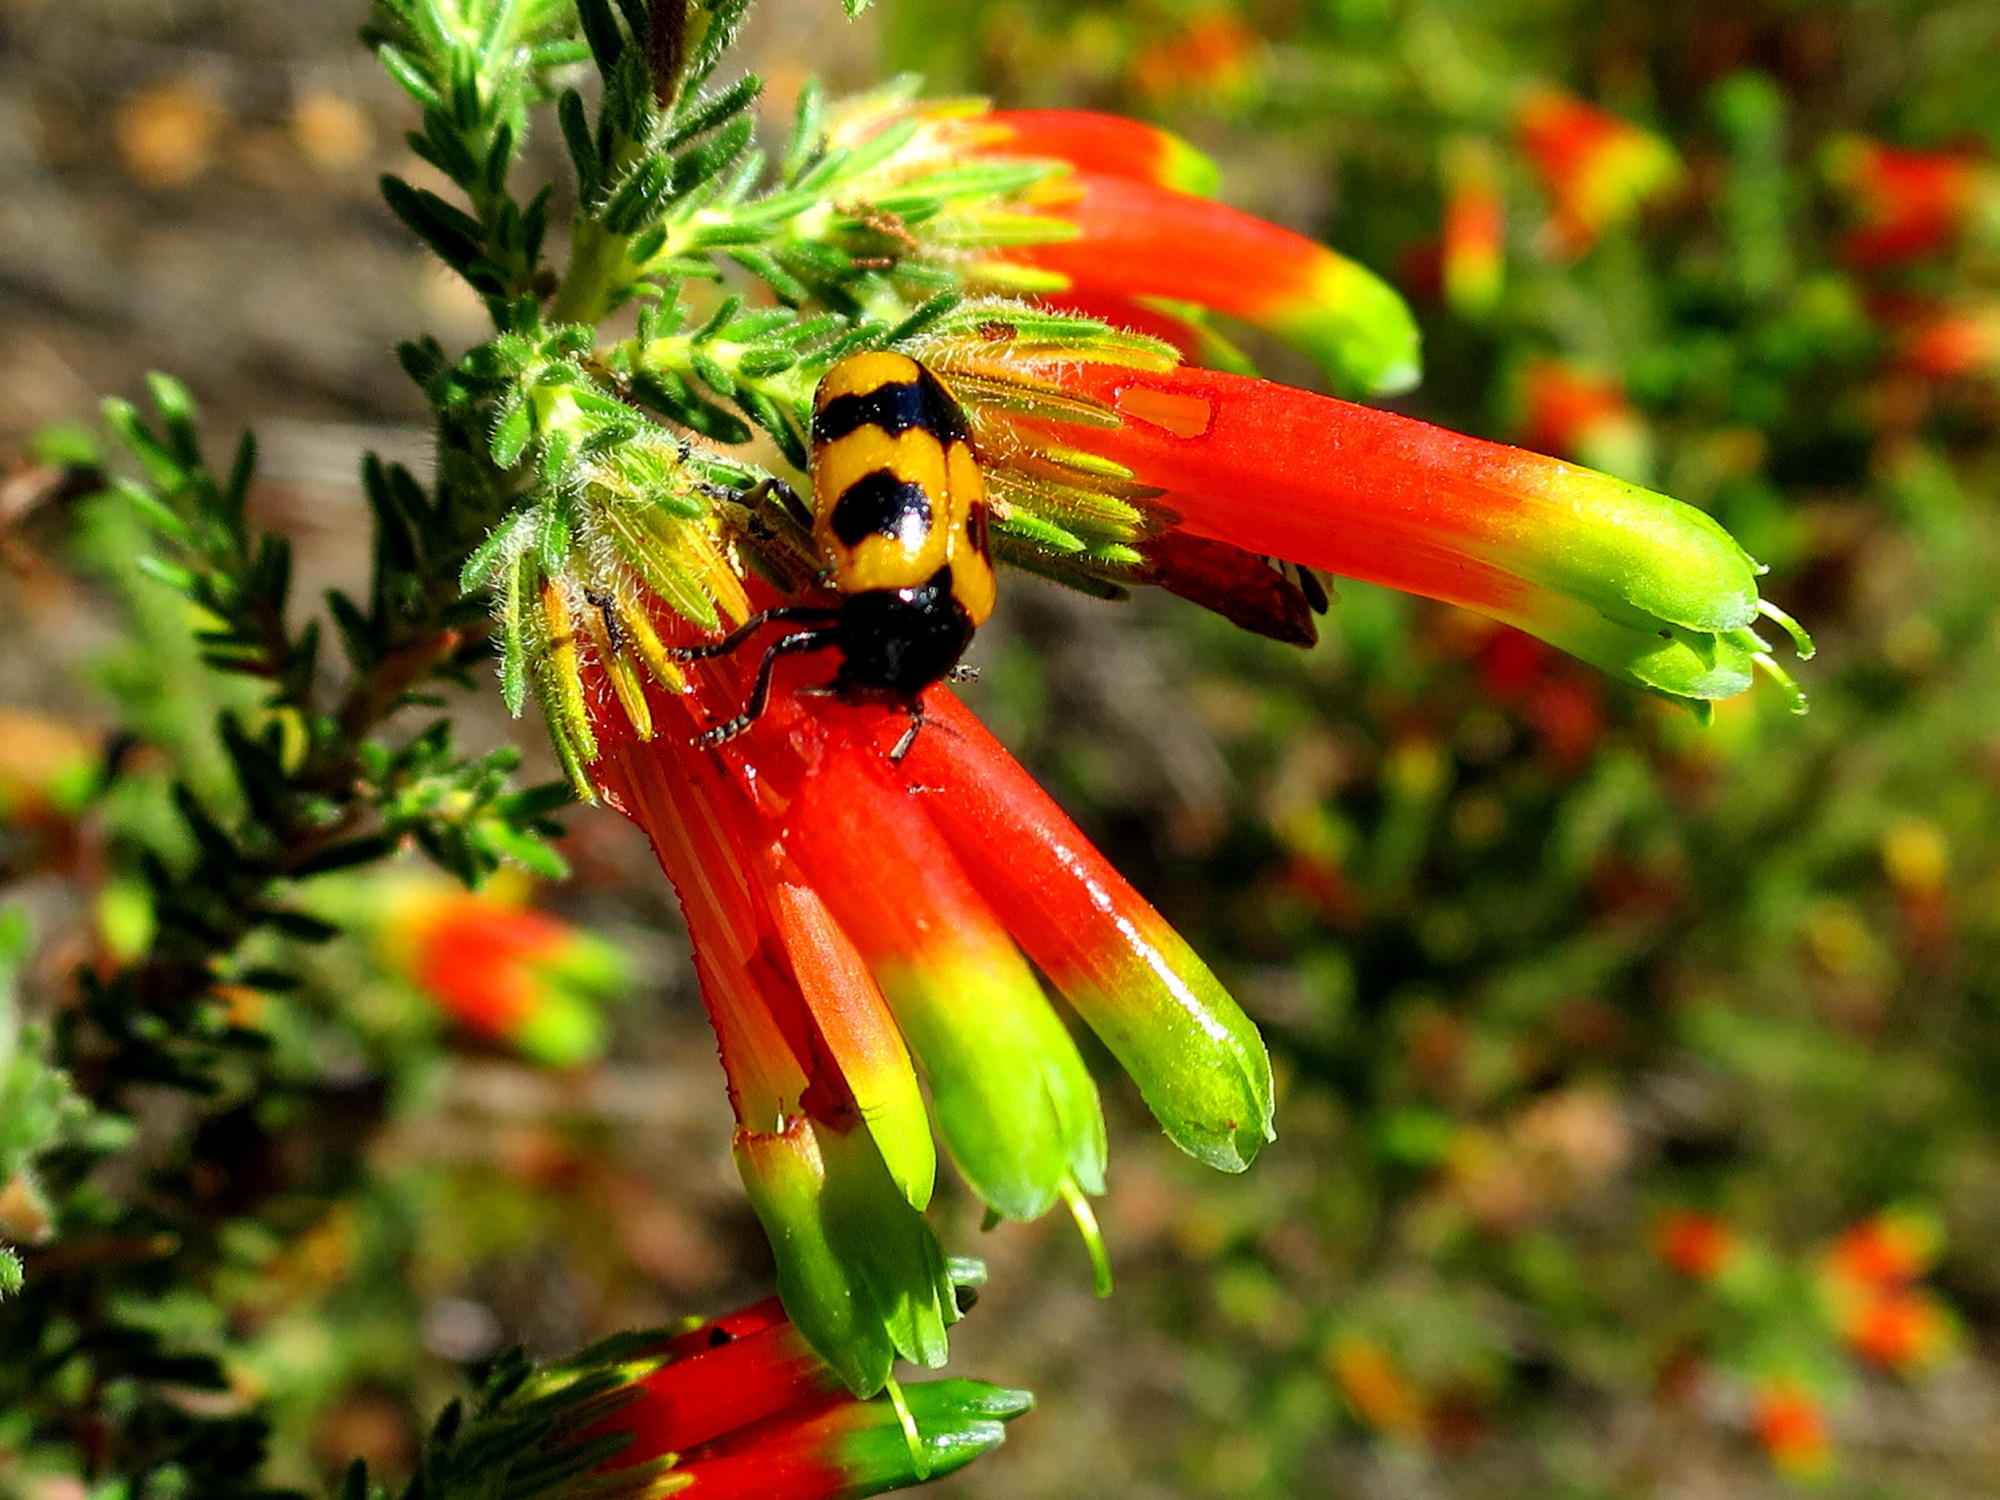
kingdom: Plantae
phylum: Tracheophyta
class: Magnoliopsida
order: Ericales
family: Ericaceae
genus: Erica
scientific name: Erica unicolor
